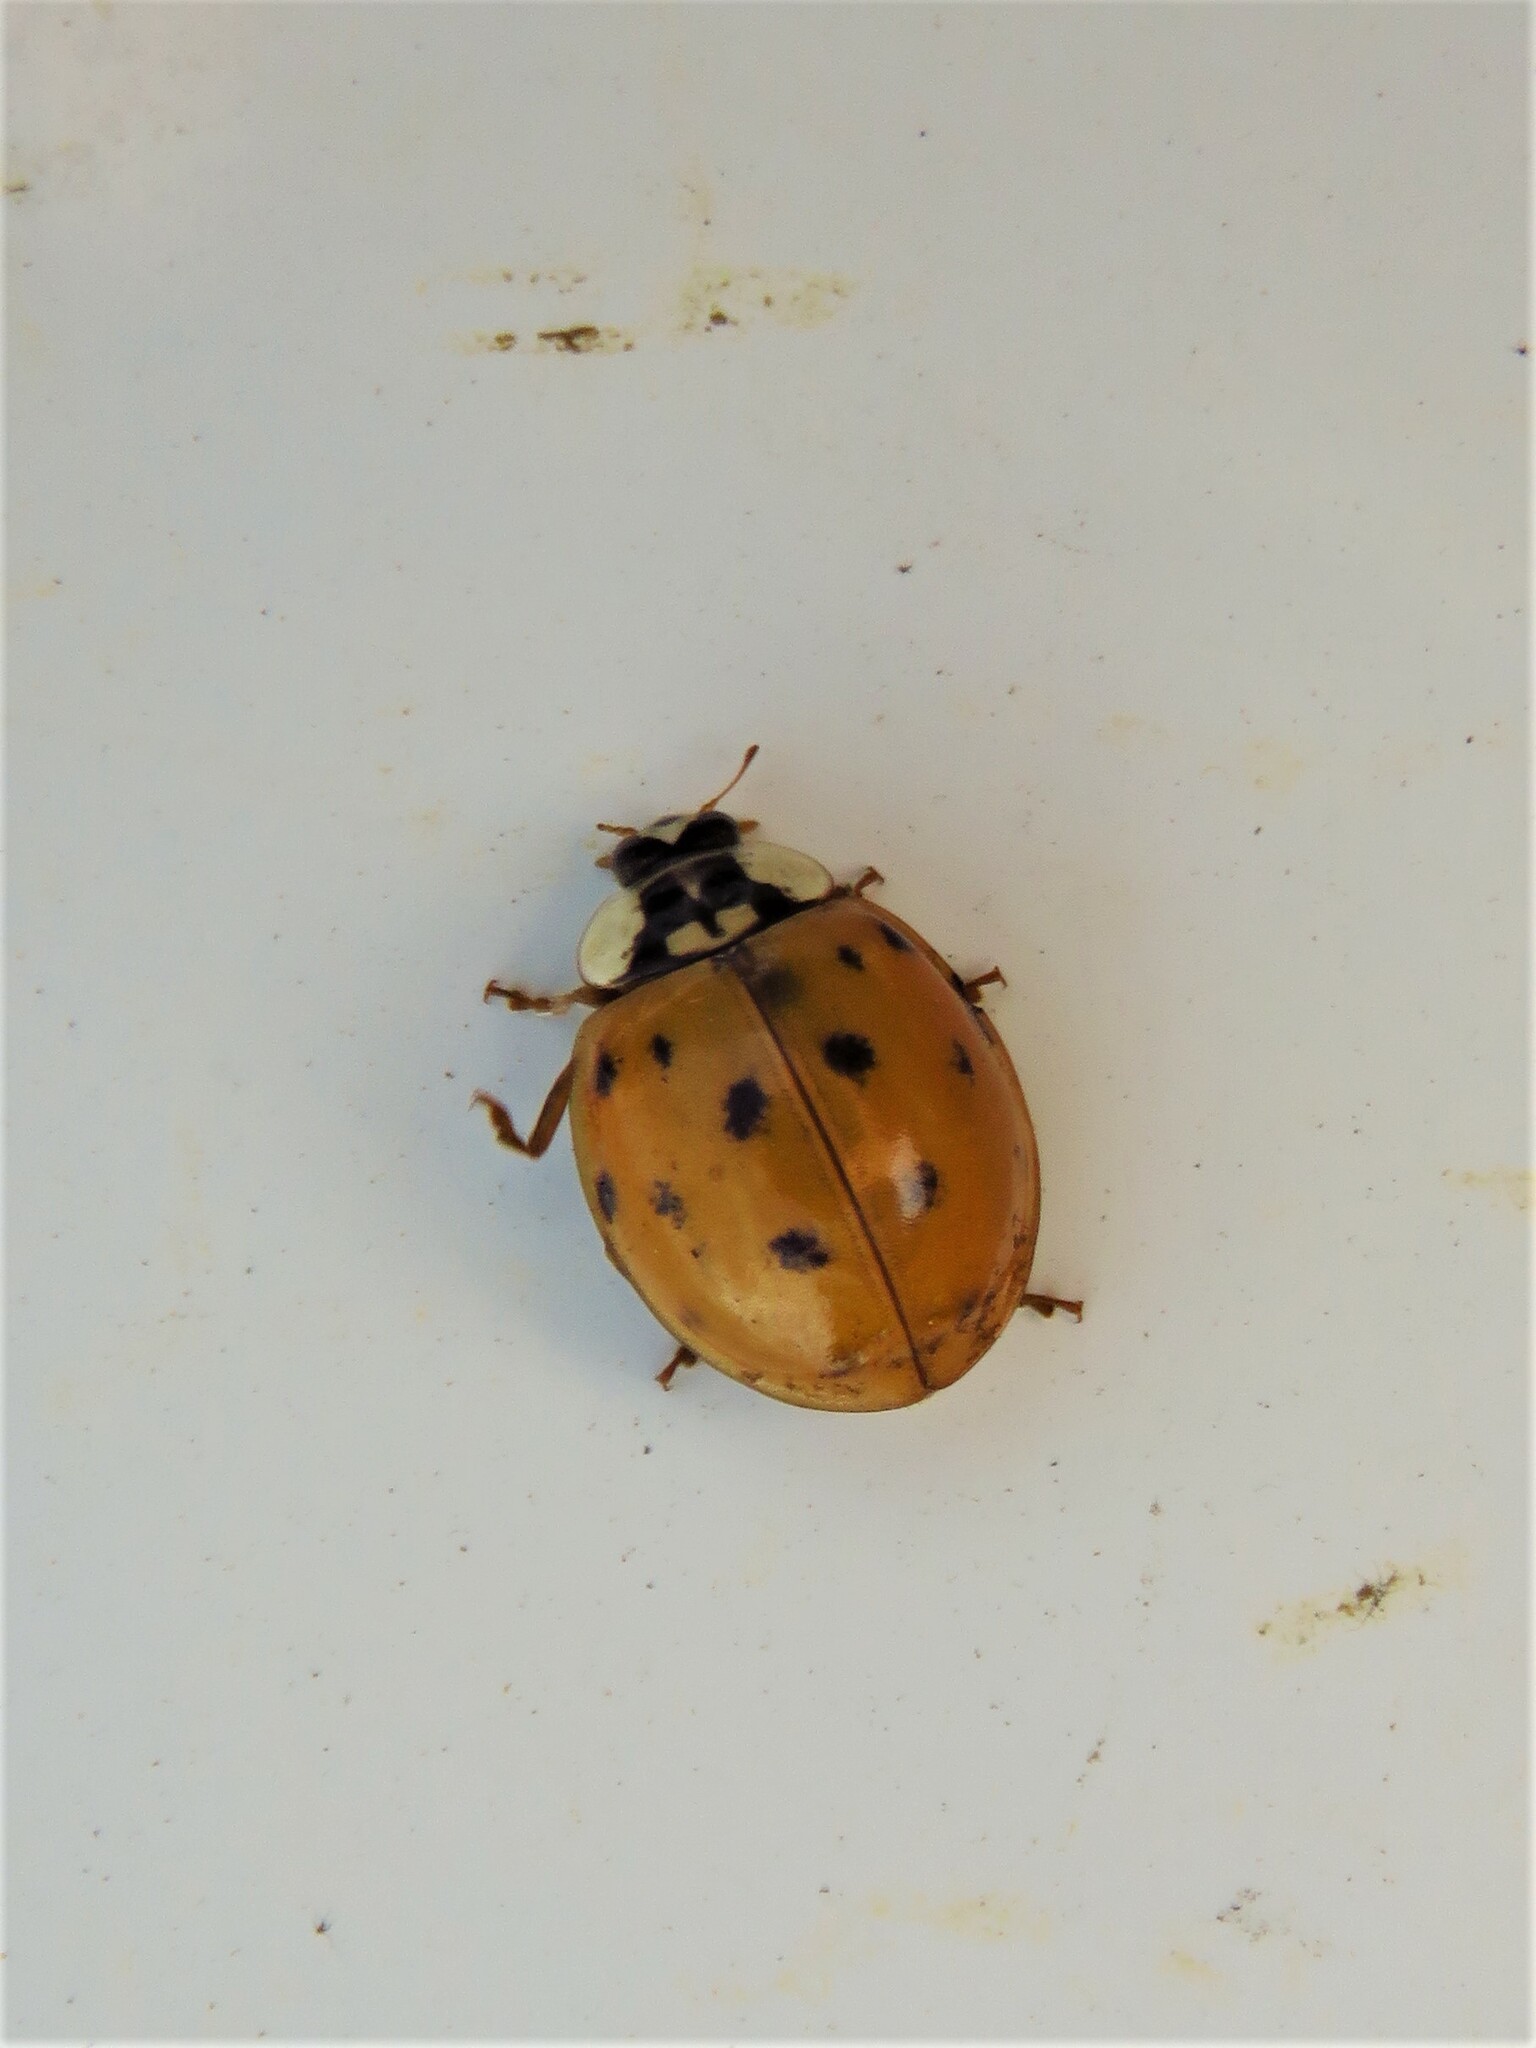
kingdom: Animalia
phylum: Arthropoda
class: Insecta
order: Coleoptera
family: Coccinellidae
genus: Harmonia
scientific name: Harmonia axyridis
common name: Harlequin ladybird
